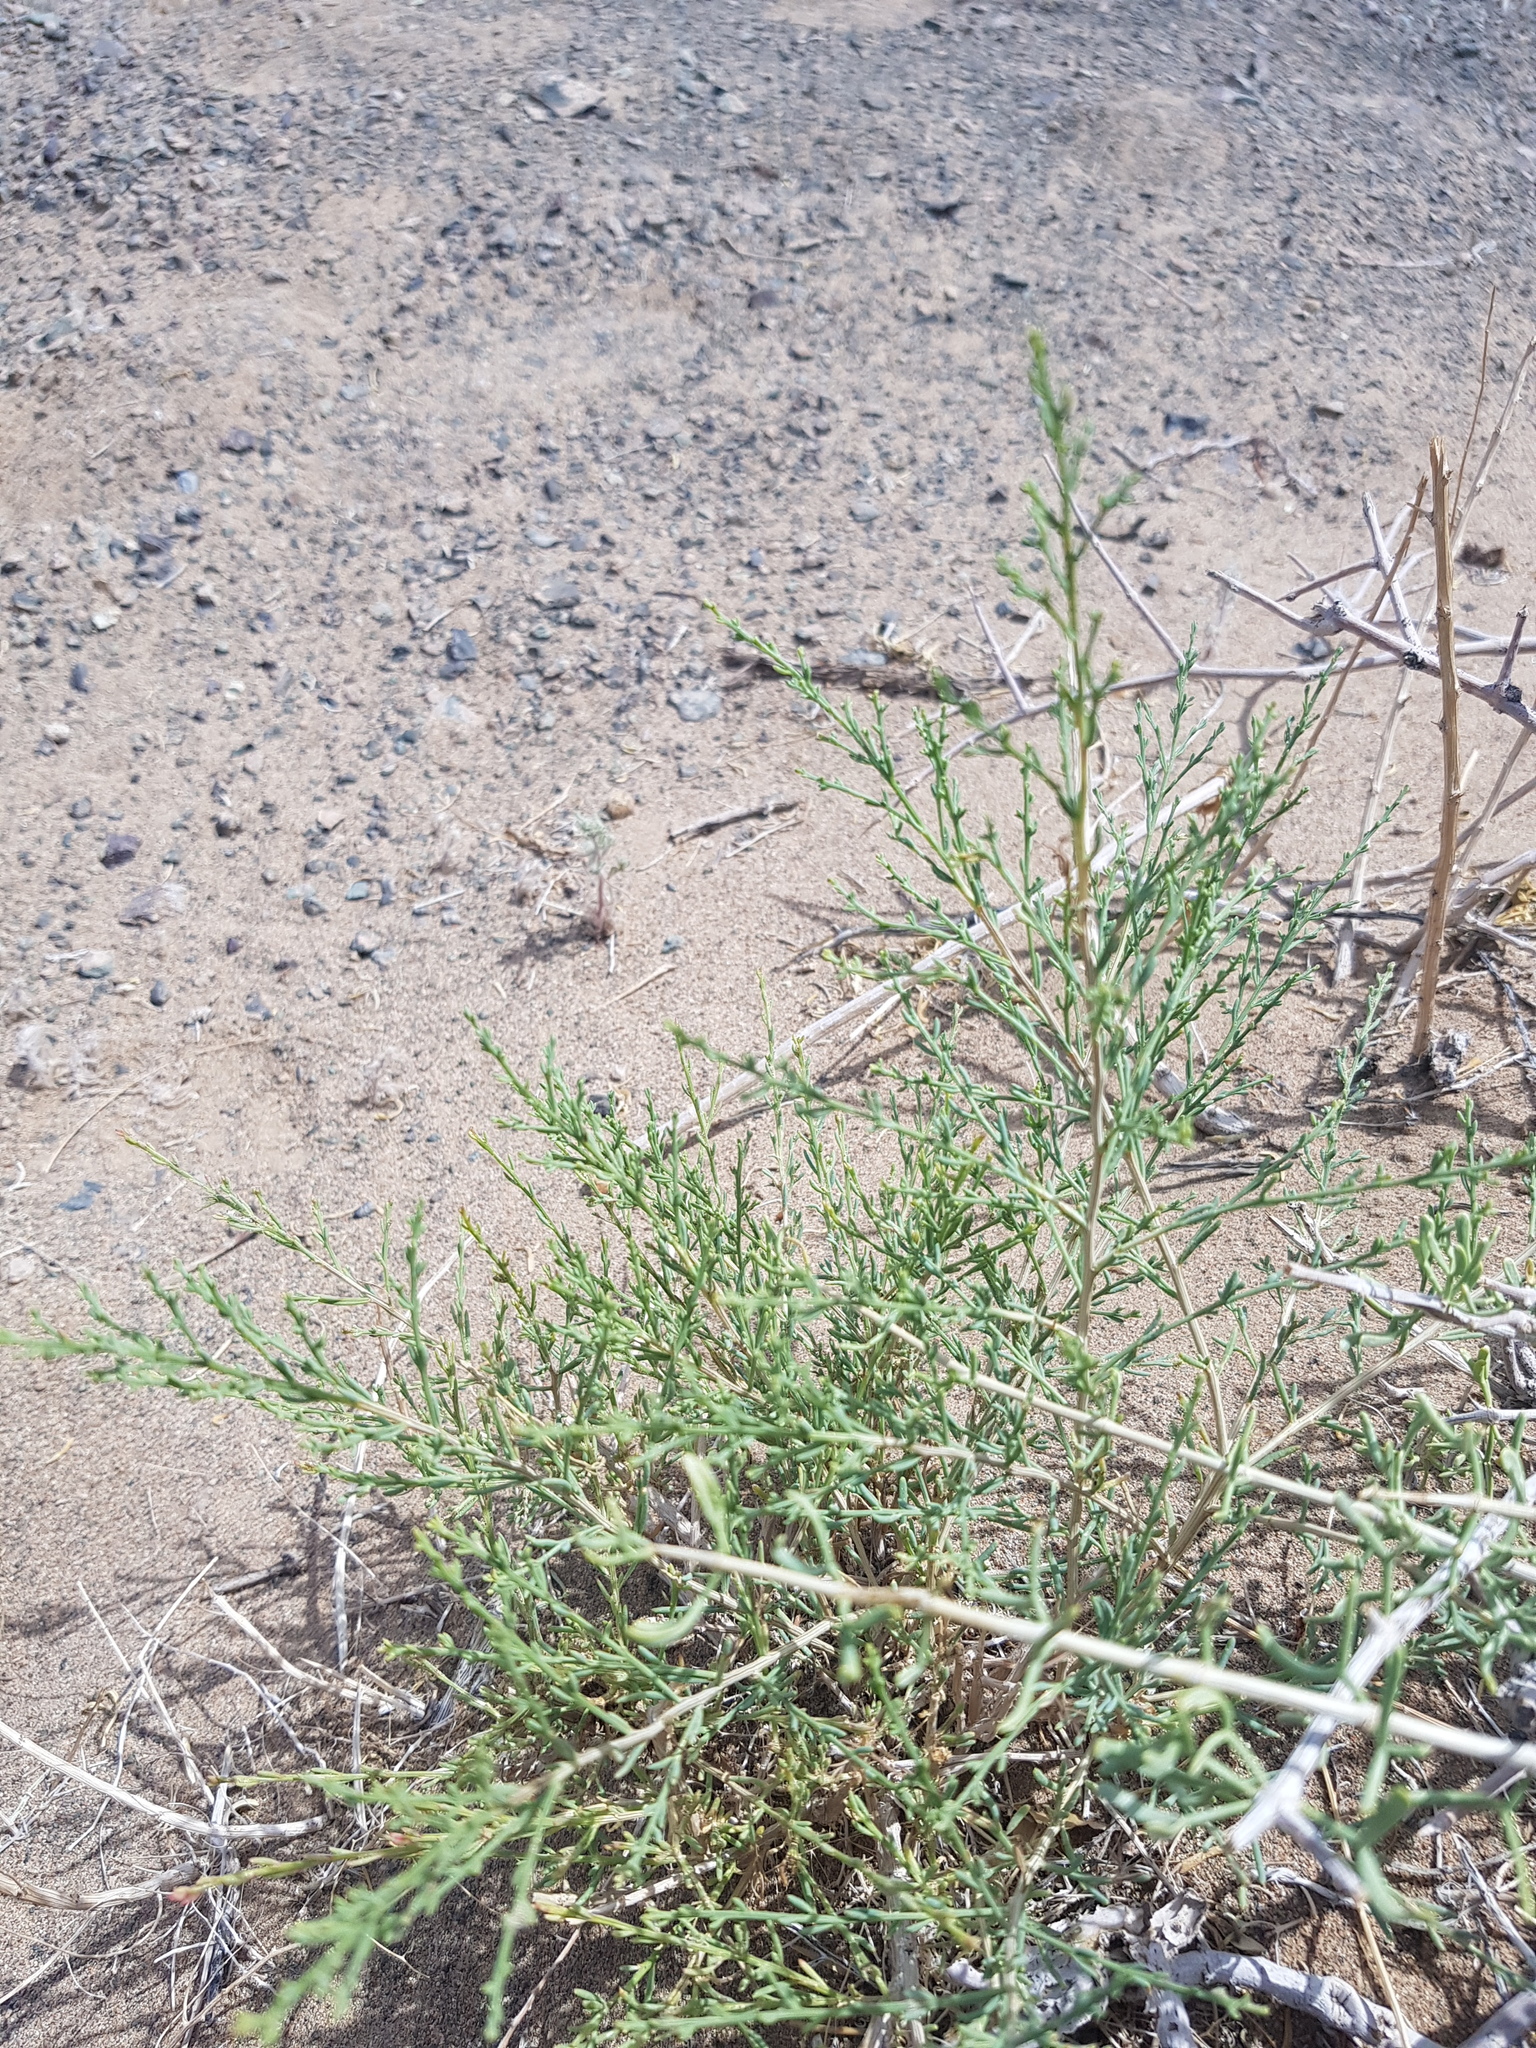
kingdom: Plantae
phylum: Tracheophyta
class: Magnoliopsida
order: Caryophyllales
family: Amaranthaceae
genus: Sympegma
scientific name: Sympegma regelii
